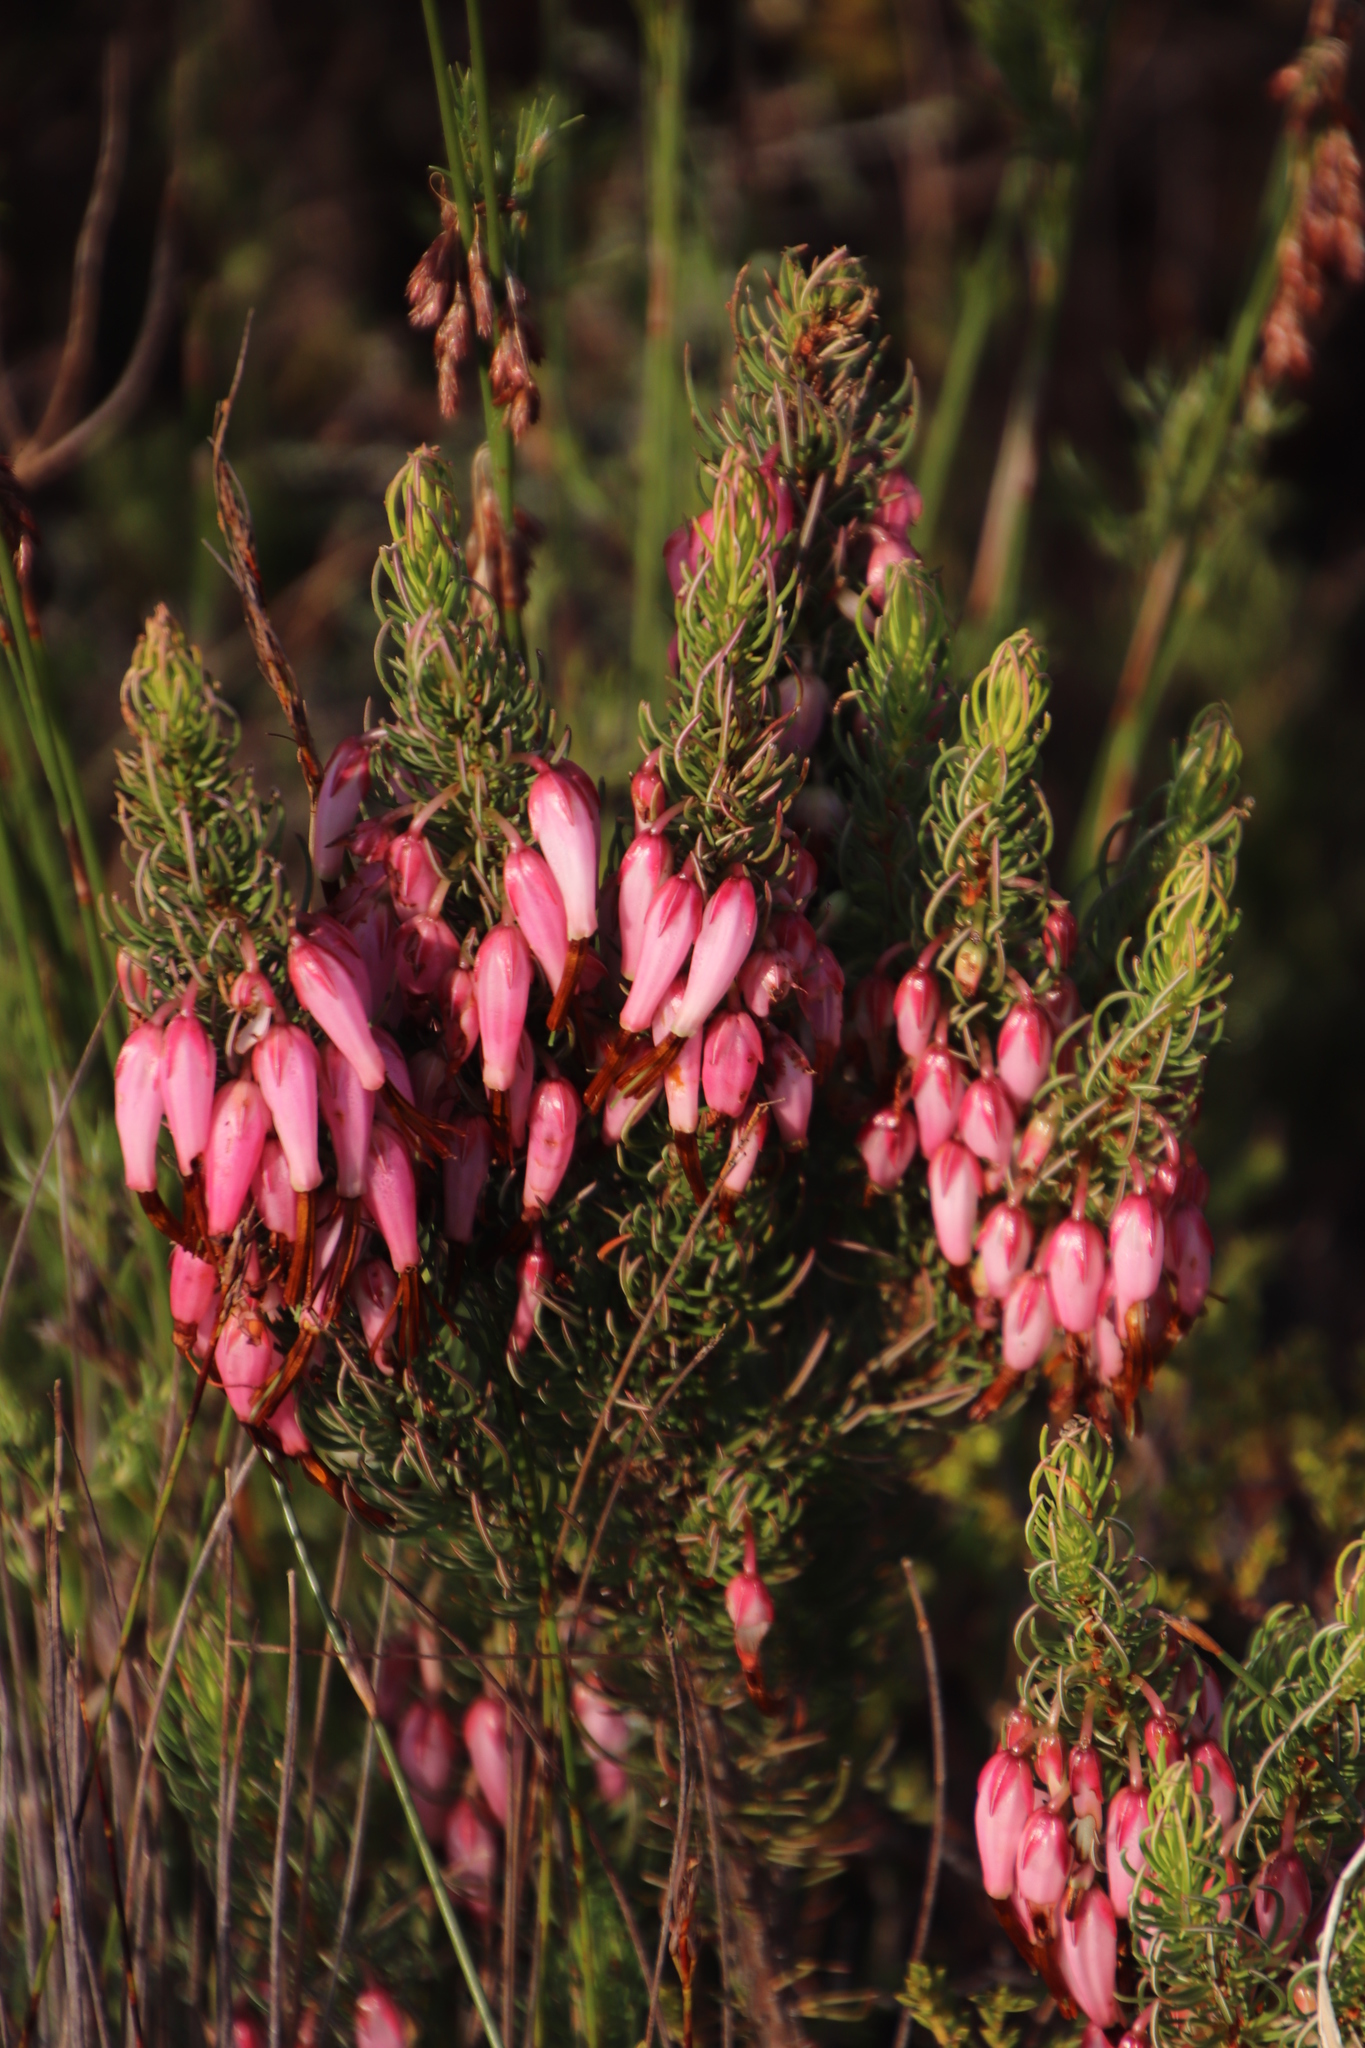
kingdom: Plantae
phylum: Tracheophyta
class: Magnoliopsida
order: Ericales
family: Ericaceae
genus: Erica
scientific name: Erica plukenetii
